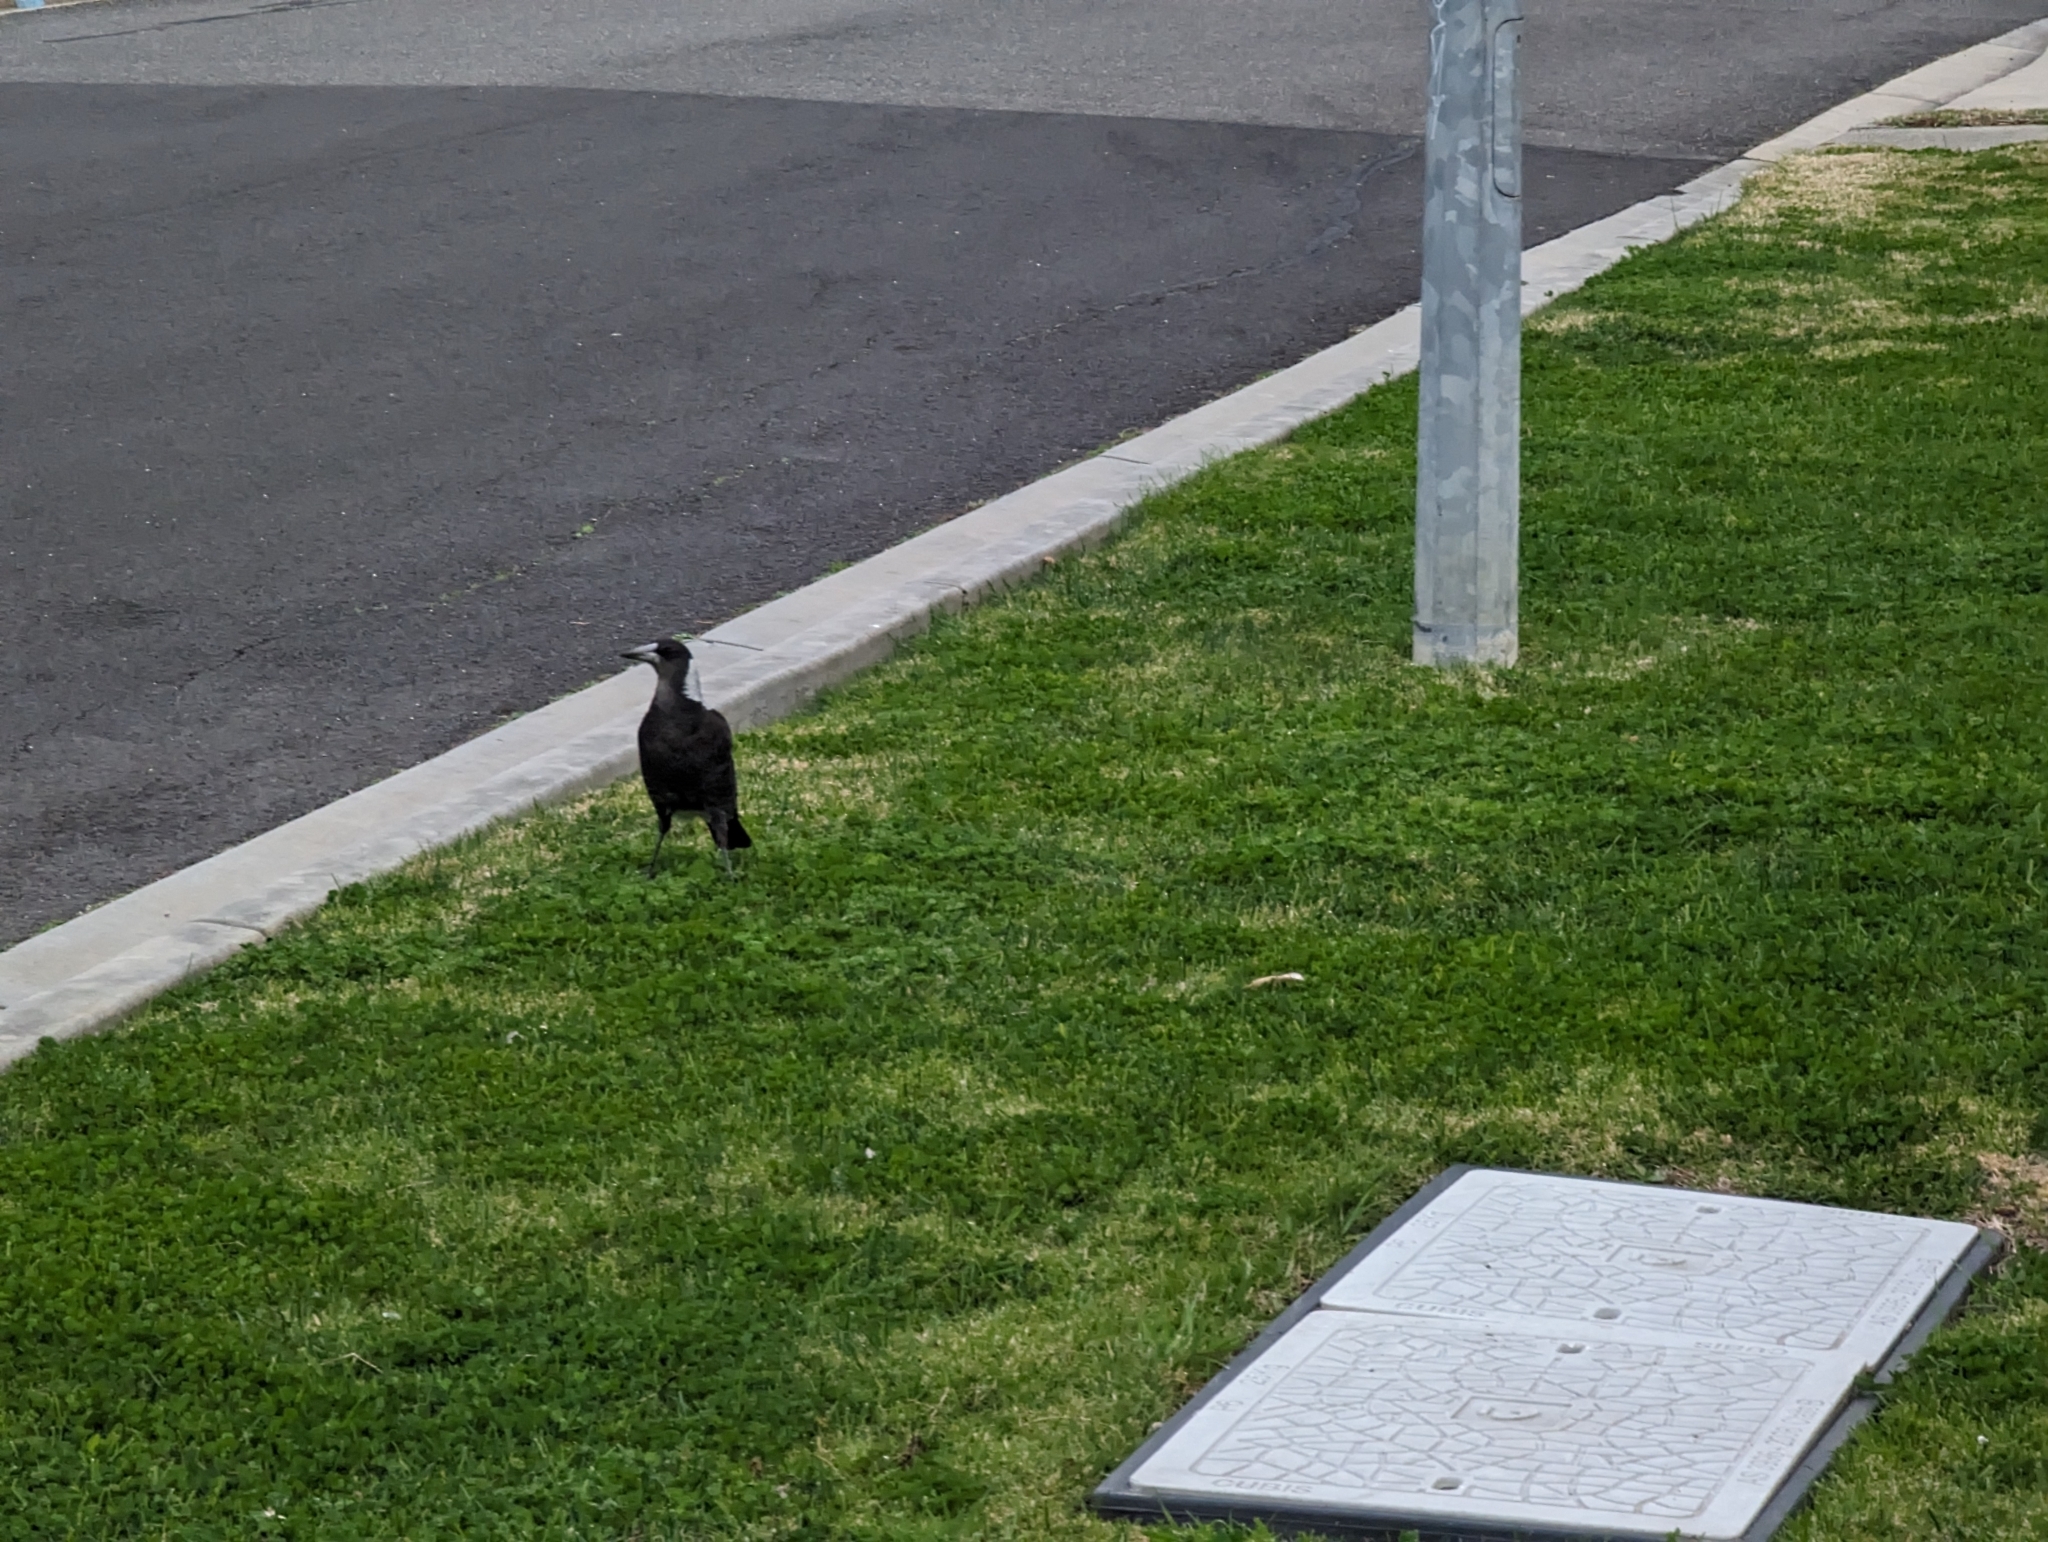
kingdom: Animalia
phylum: Chordata
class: Aves
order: Passeriformes
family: Cracticidae
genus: Gymnorhina
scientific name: Gymnorhina tibicen
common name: Australian magpie
